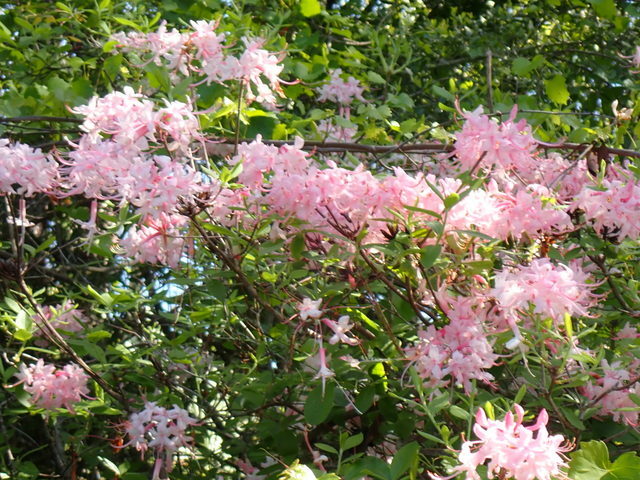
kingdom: Plantae
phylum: Tracheophyta
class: Magnoliopsida
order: Ericales
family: Ericaceae
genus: Rhododendron
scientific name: Rhododendron canescens
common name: Mountain azalea
